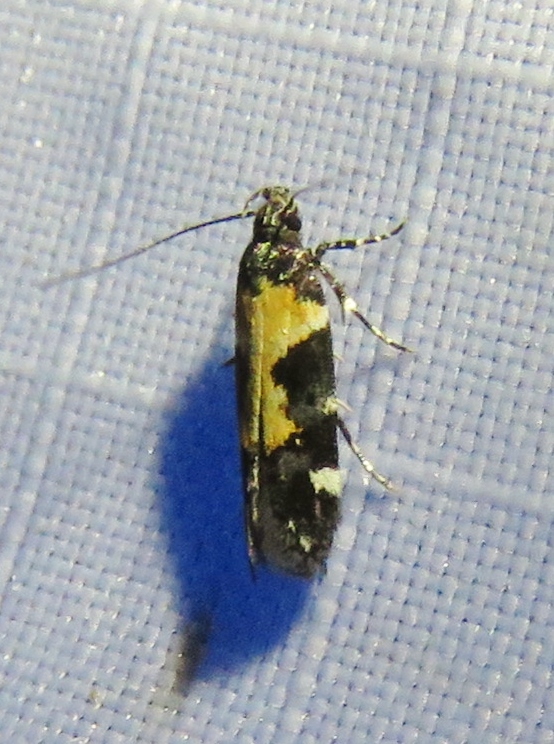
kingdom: Animalia
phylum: Arthropoda
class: Insecta
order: Lepidoptera
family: Gelechiidae
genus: Stegasta
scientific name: Stegasta bosqueella
